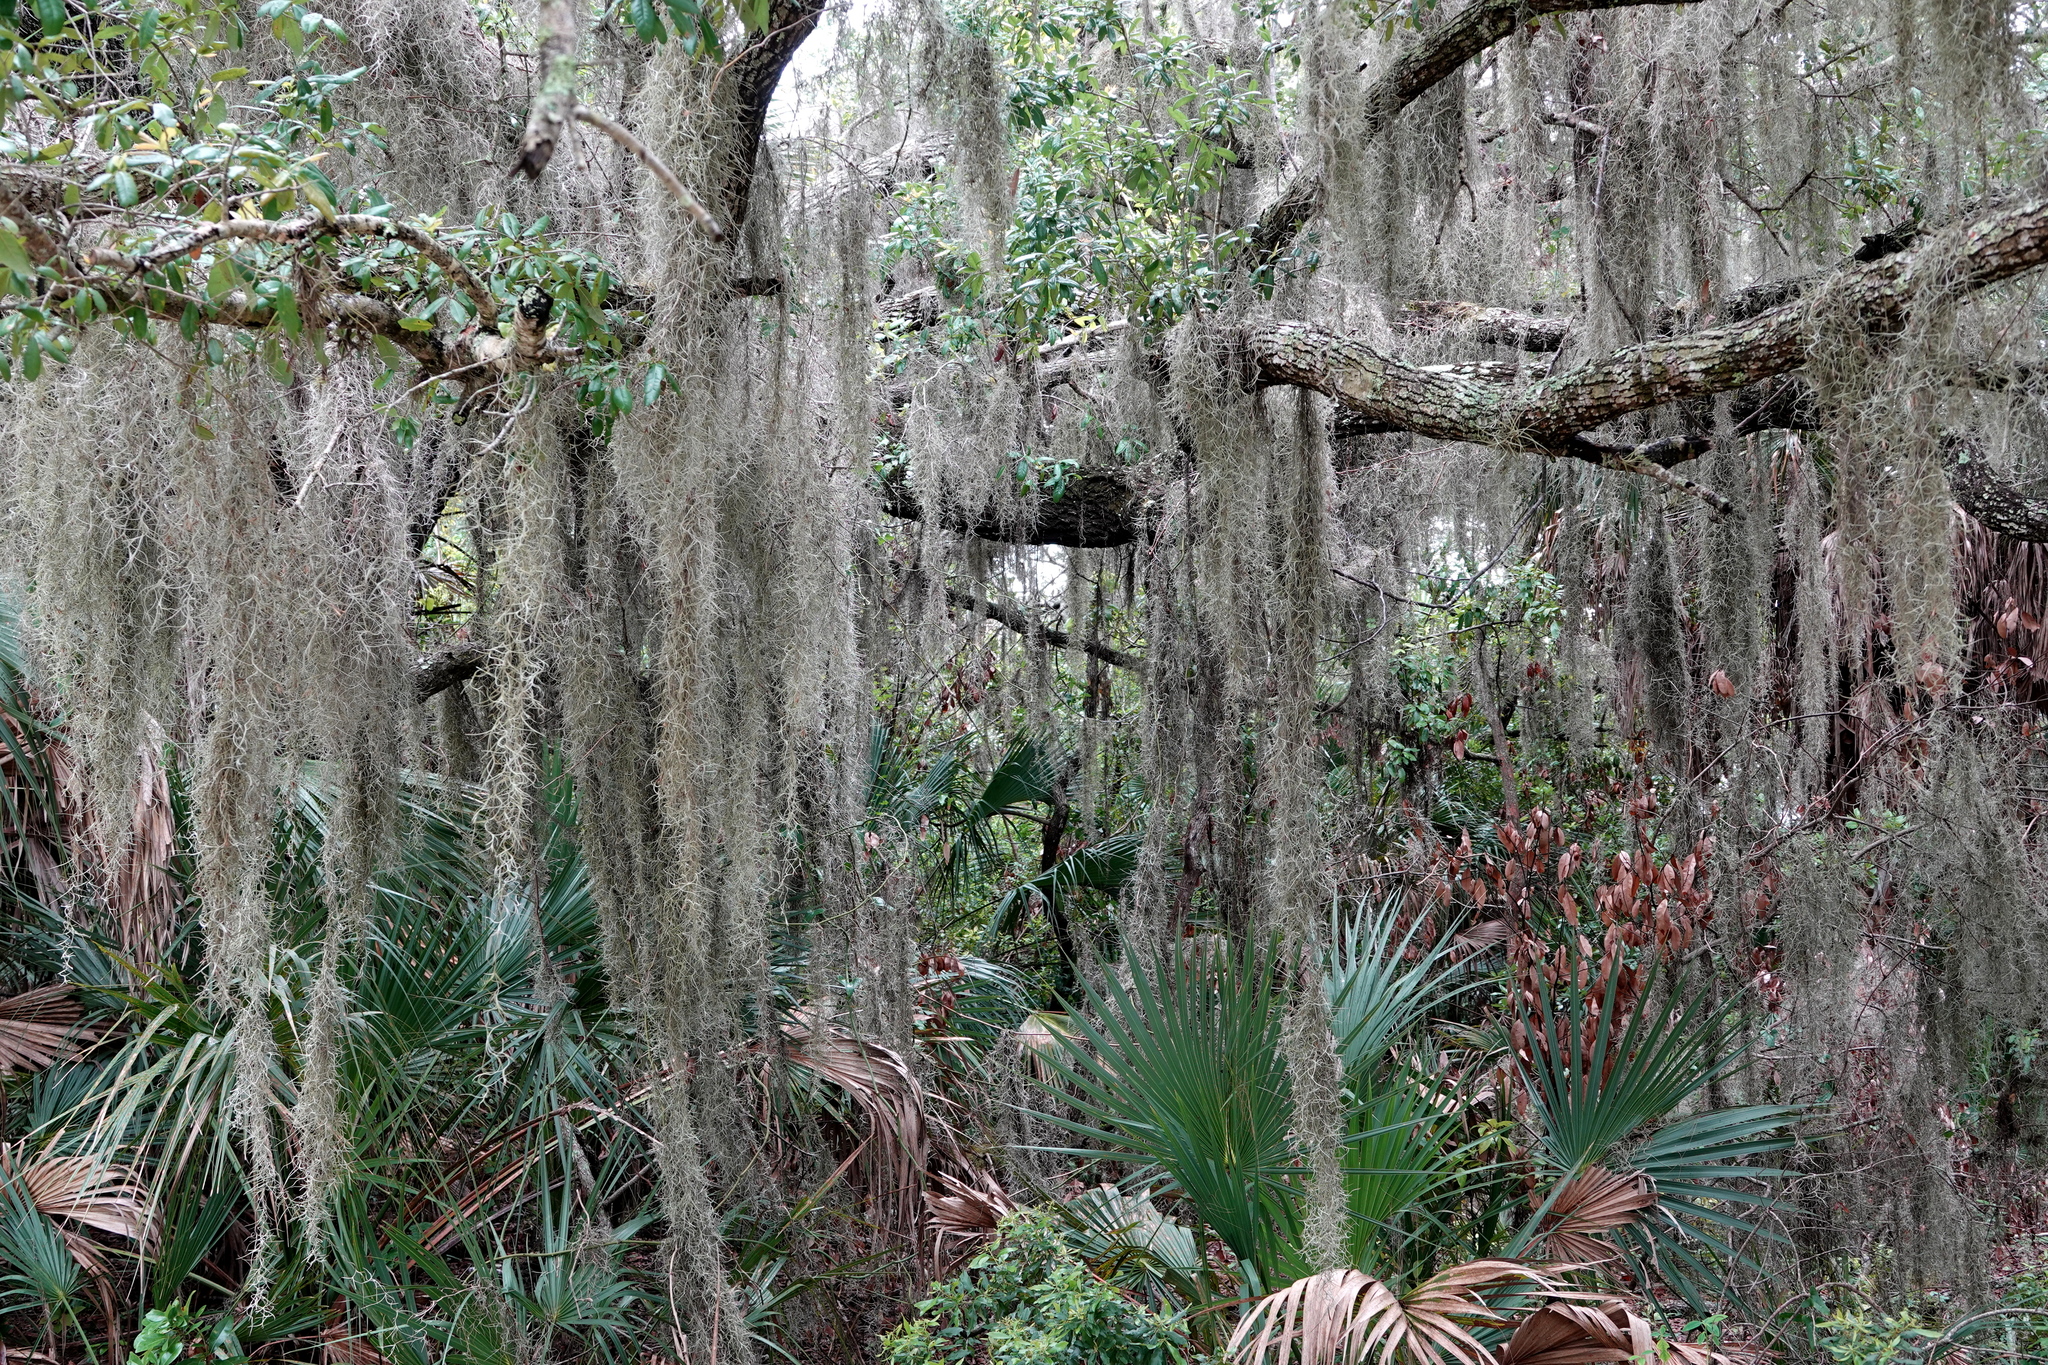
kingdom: Plantae
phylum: Tracheophyta
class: Liliopsida
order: Poales
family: Bromeliaceae
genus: Tillandsia
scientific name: Tillandsia usneoides
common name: Spanish moss
